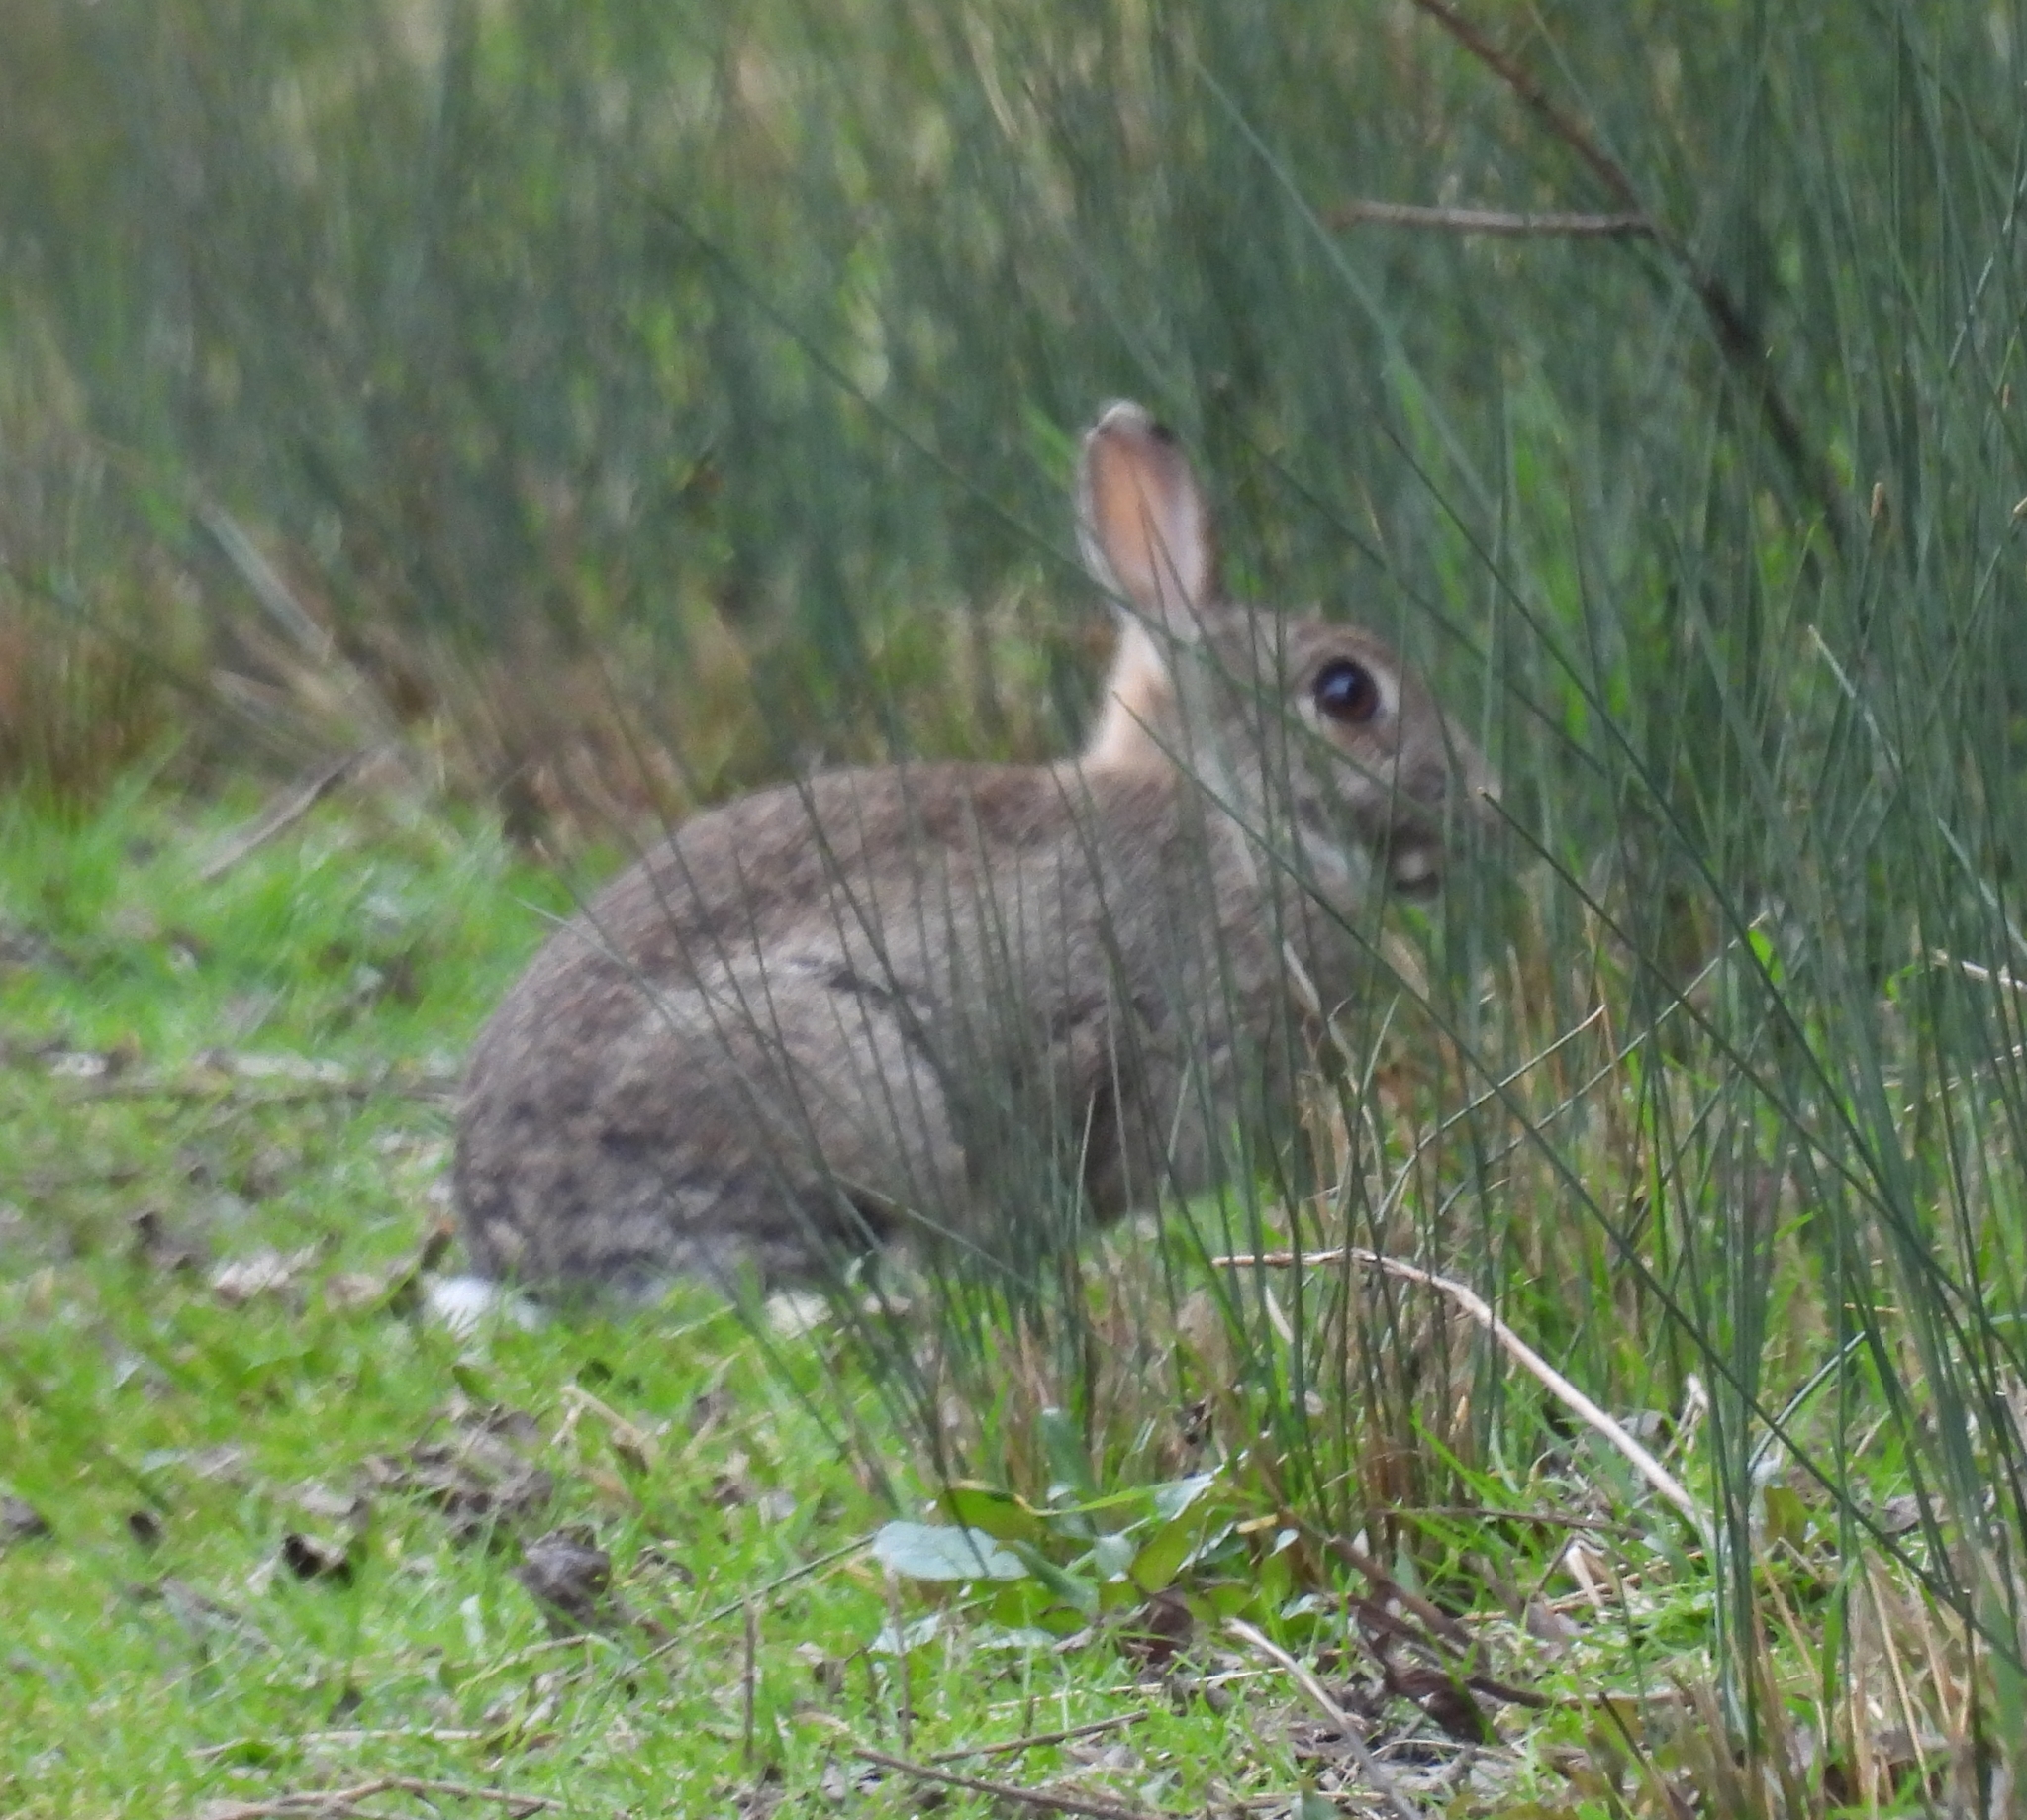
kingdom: Animalia
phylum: Chordata
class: Mammalia
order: Lagomorpha
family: Leporidae
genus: Oryctolagus
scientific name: Oryctolagus cuniculus
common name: European rabbit
